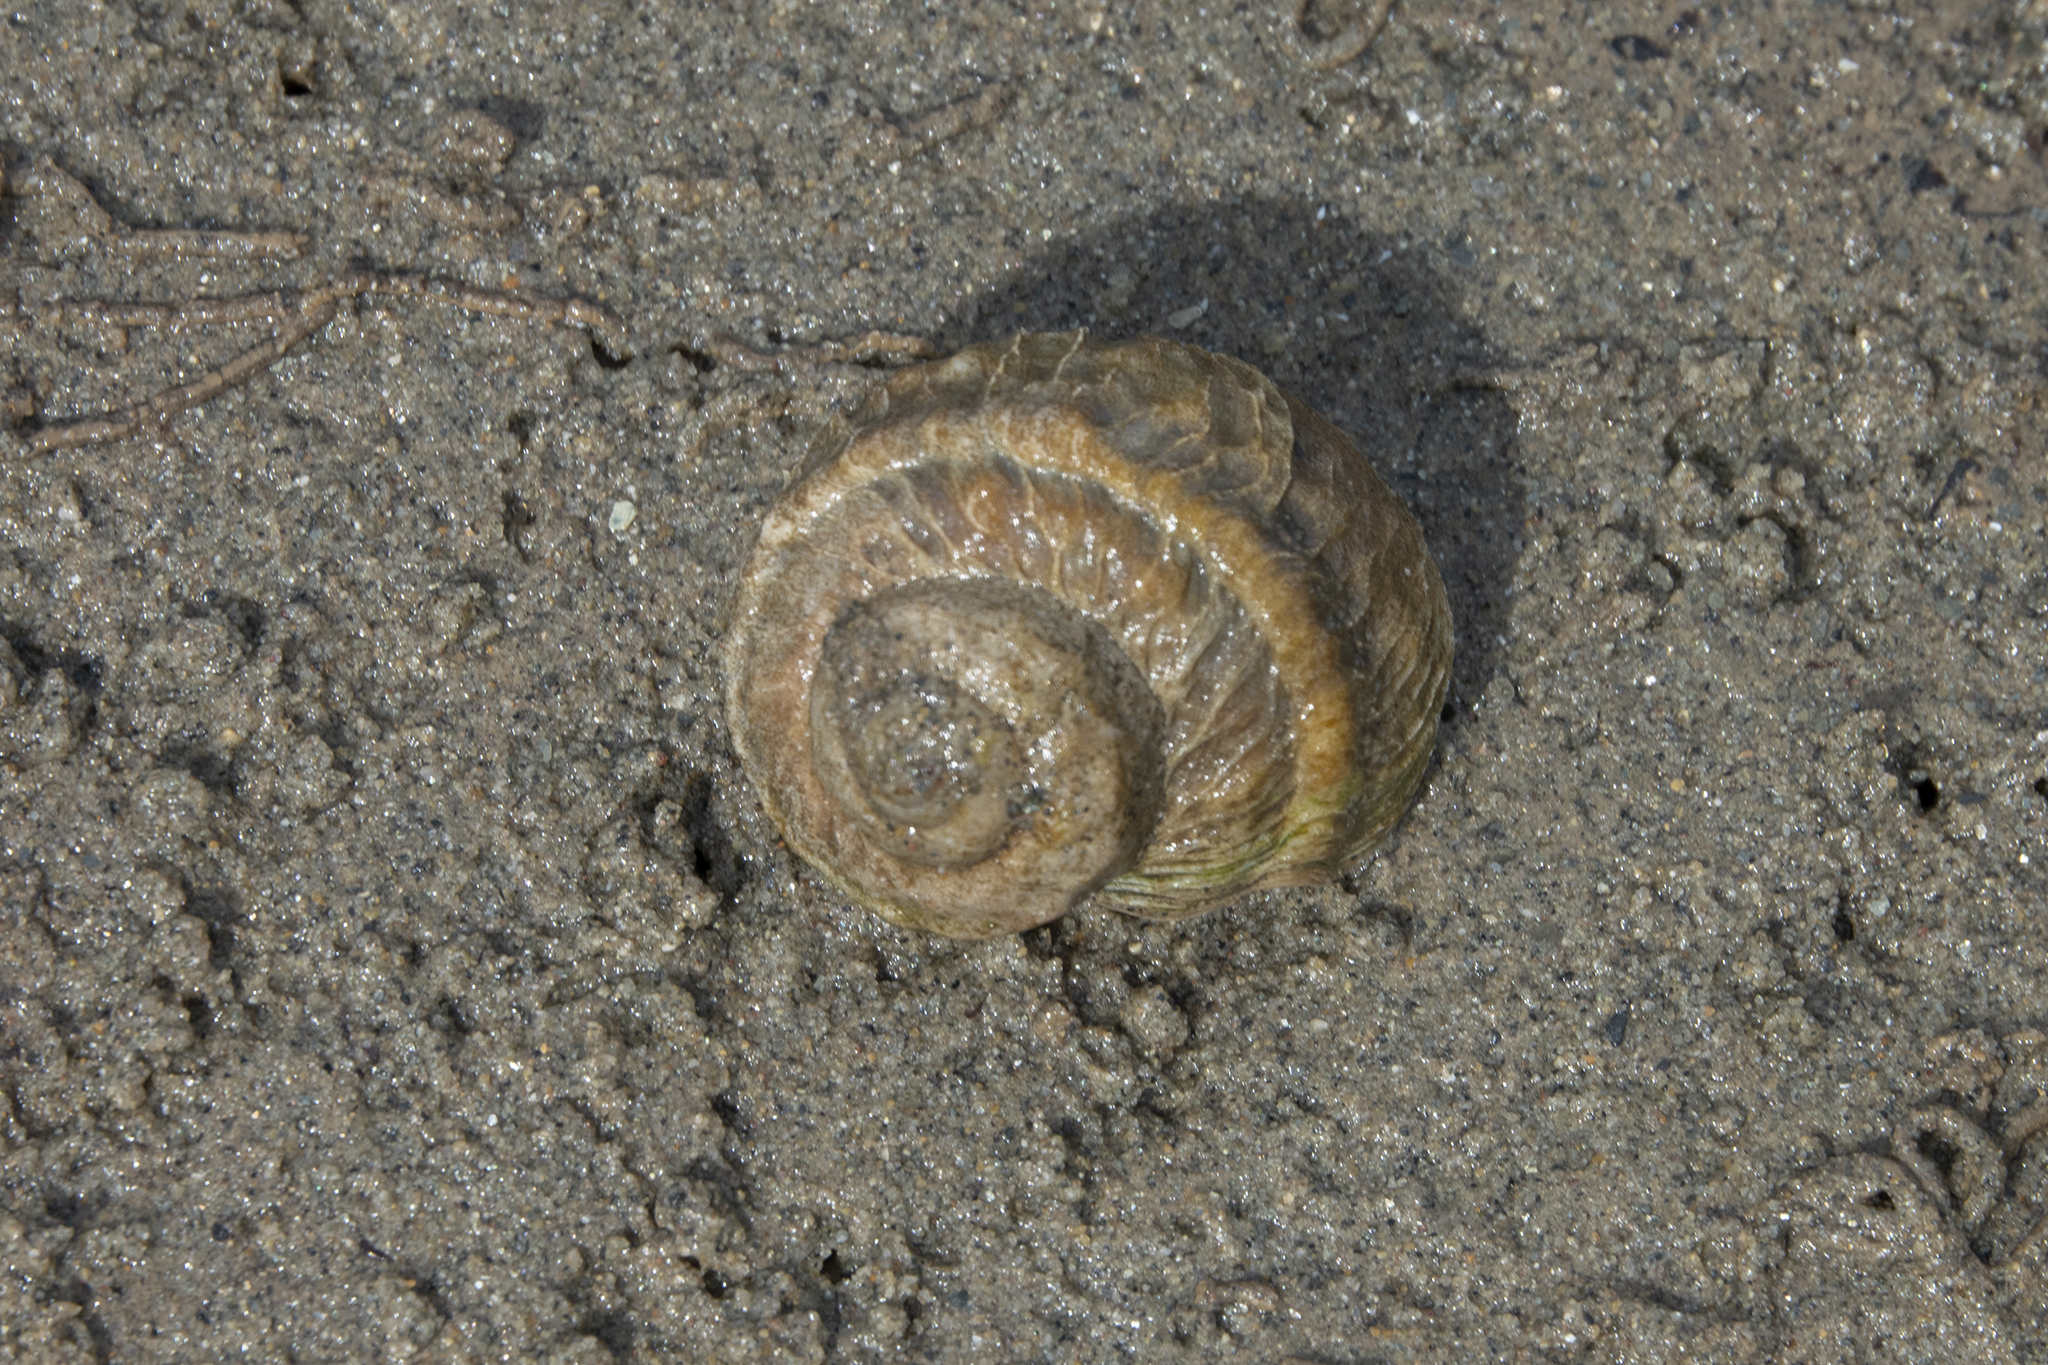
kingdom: Animalia
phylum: Mollusca
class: Gastropoda
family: Amphibolidae
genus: Amphibola
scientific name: Amphibola crenata
